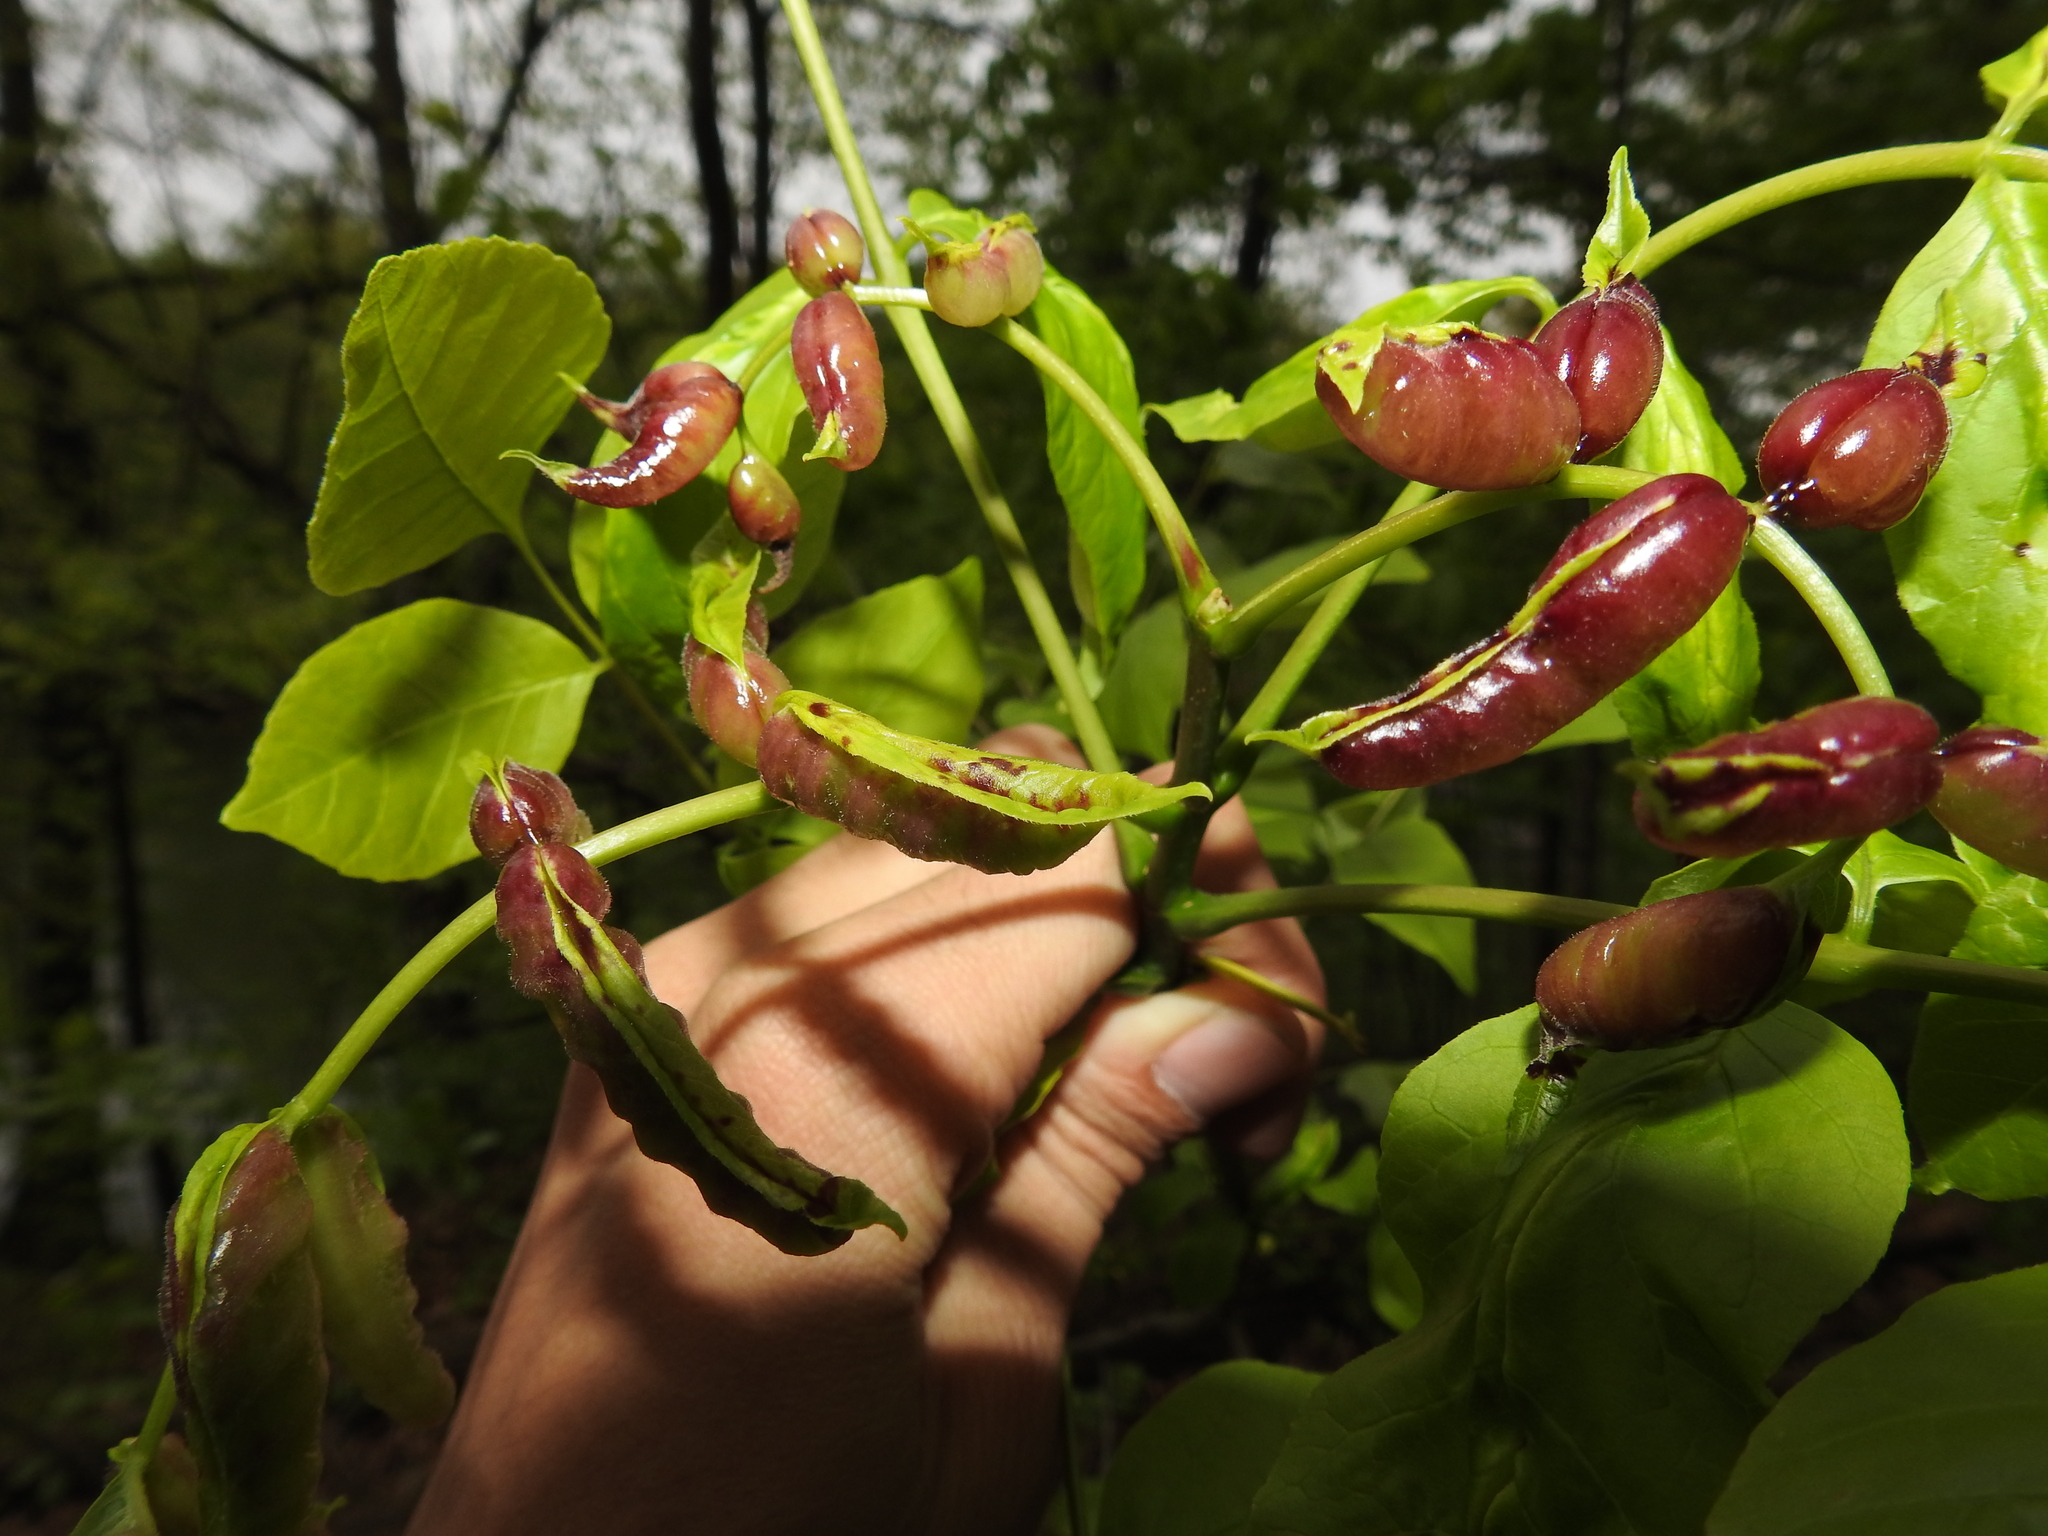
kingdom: Animalia
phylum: Arthropoda
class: Insecta
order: Diptera
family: Cecidomyiidae
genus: Dasineura
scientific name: Dasineura tumidosae
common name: Ash petiole gall midge
